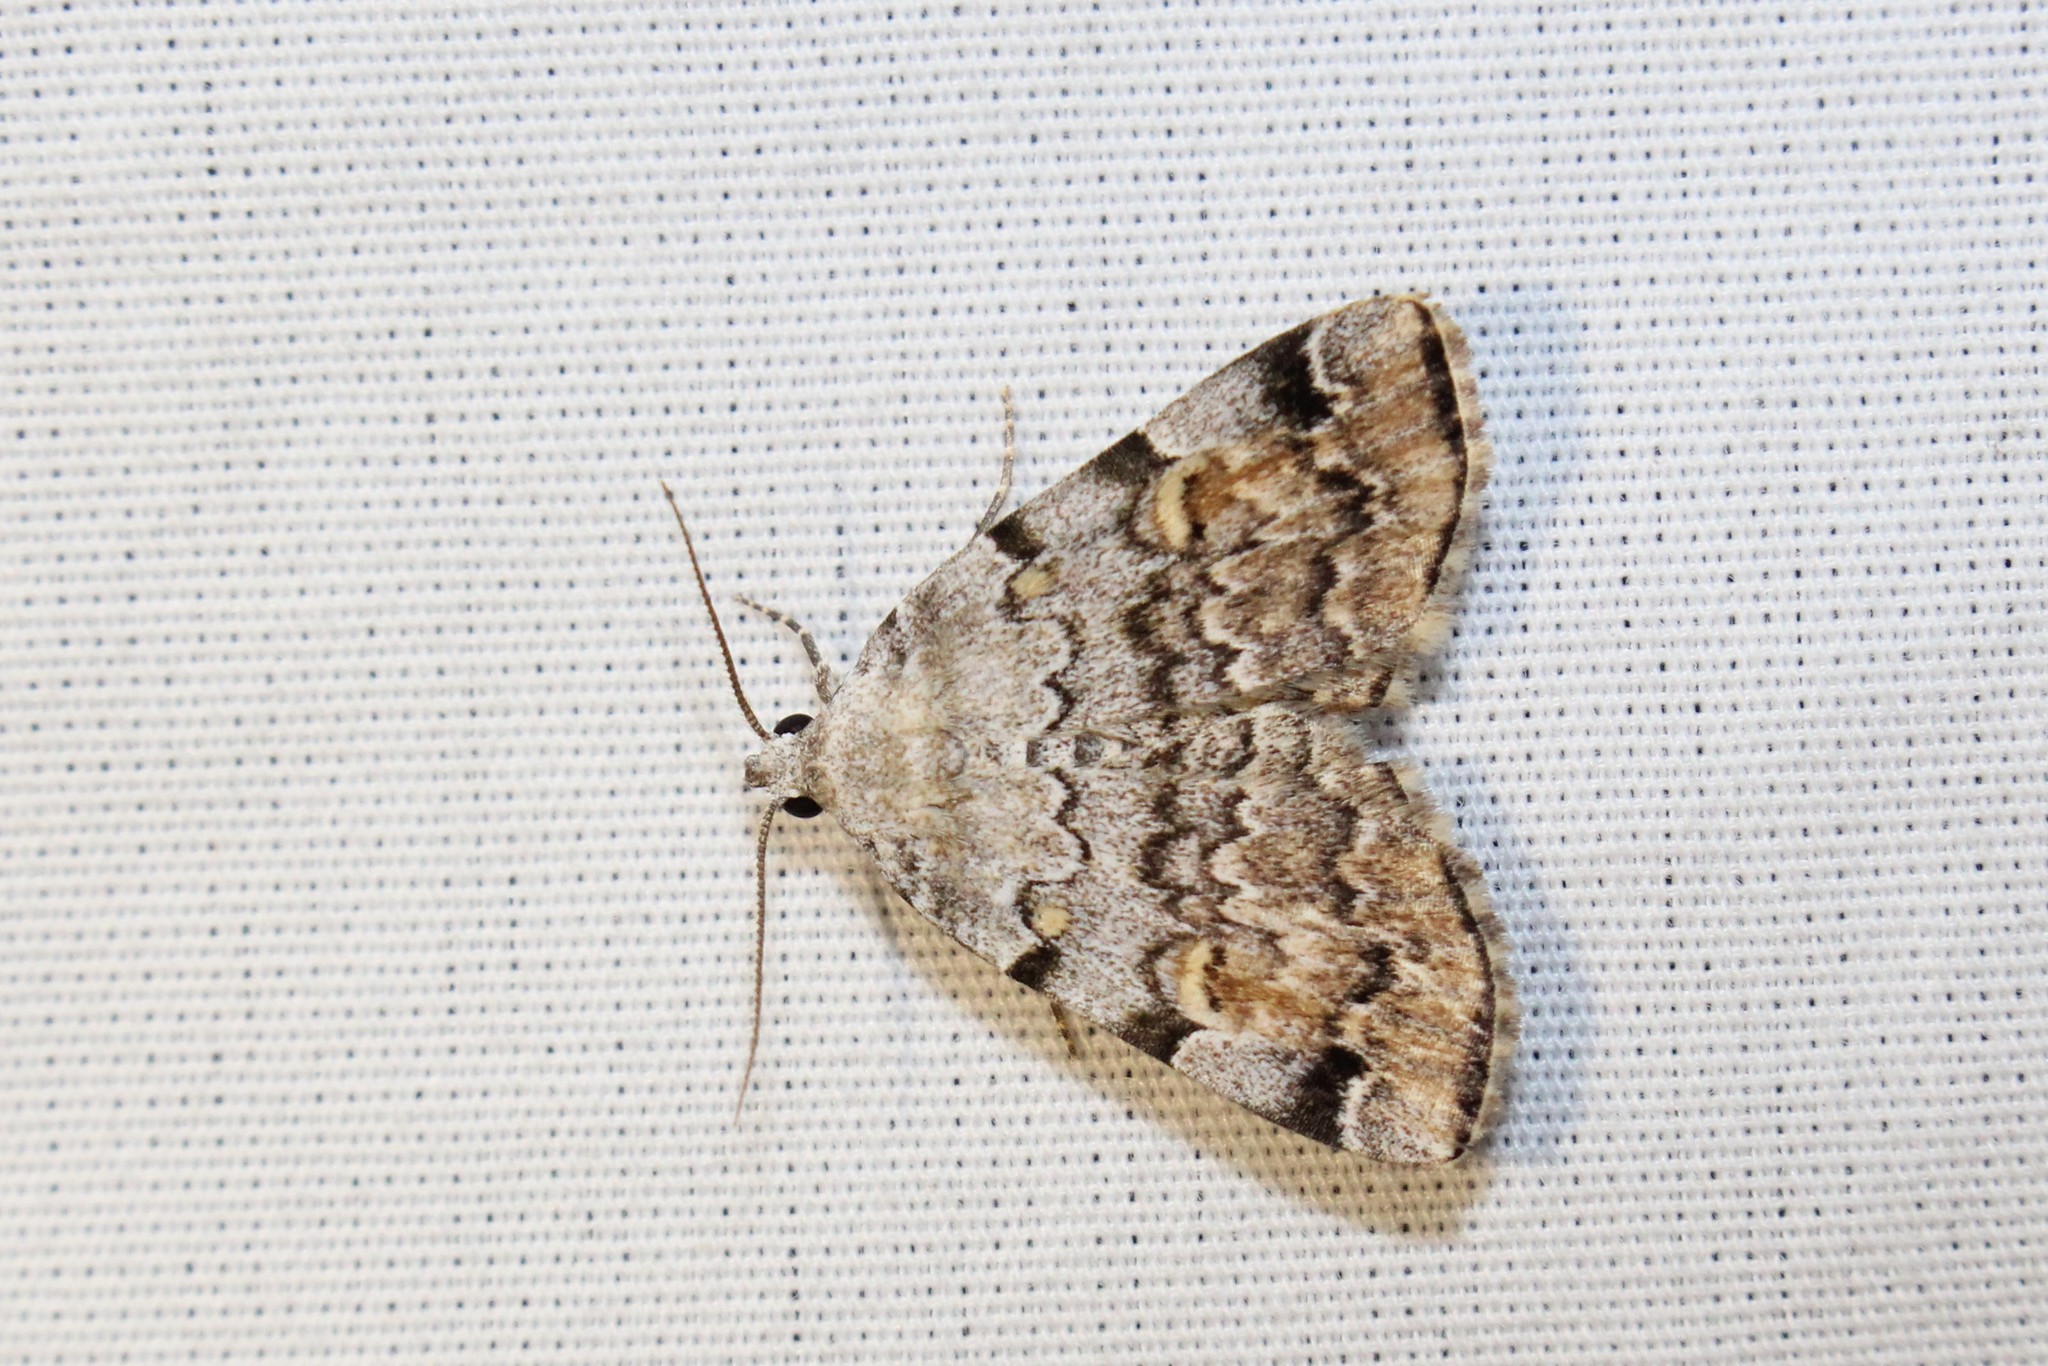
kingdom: Animalia
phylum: Arthropoda
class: Insecta
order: Lepidoptera
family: Erebidae
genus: Idia
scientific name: Idia americalis
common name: American idia moth
